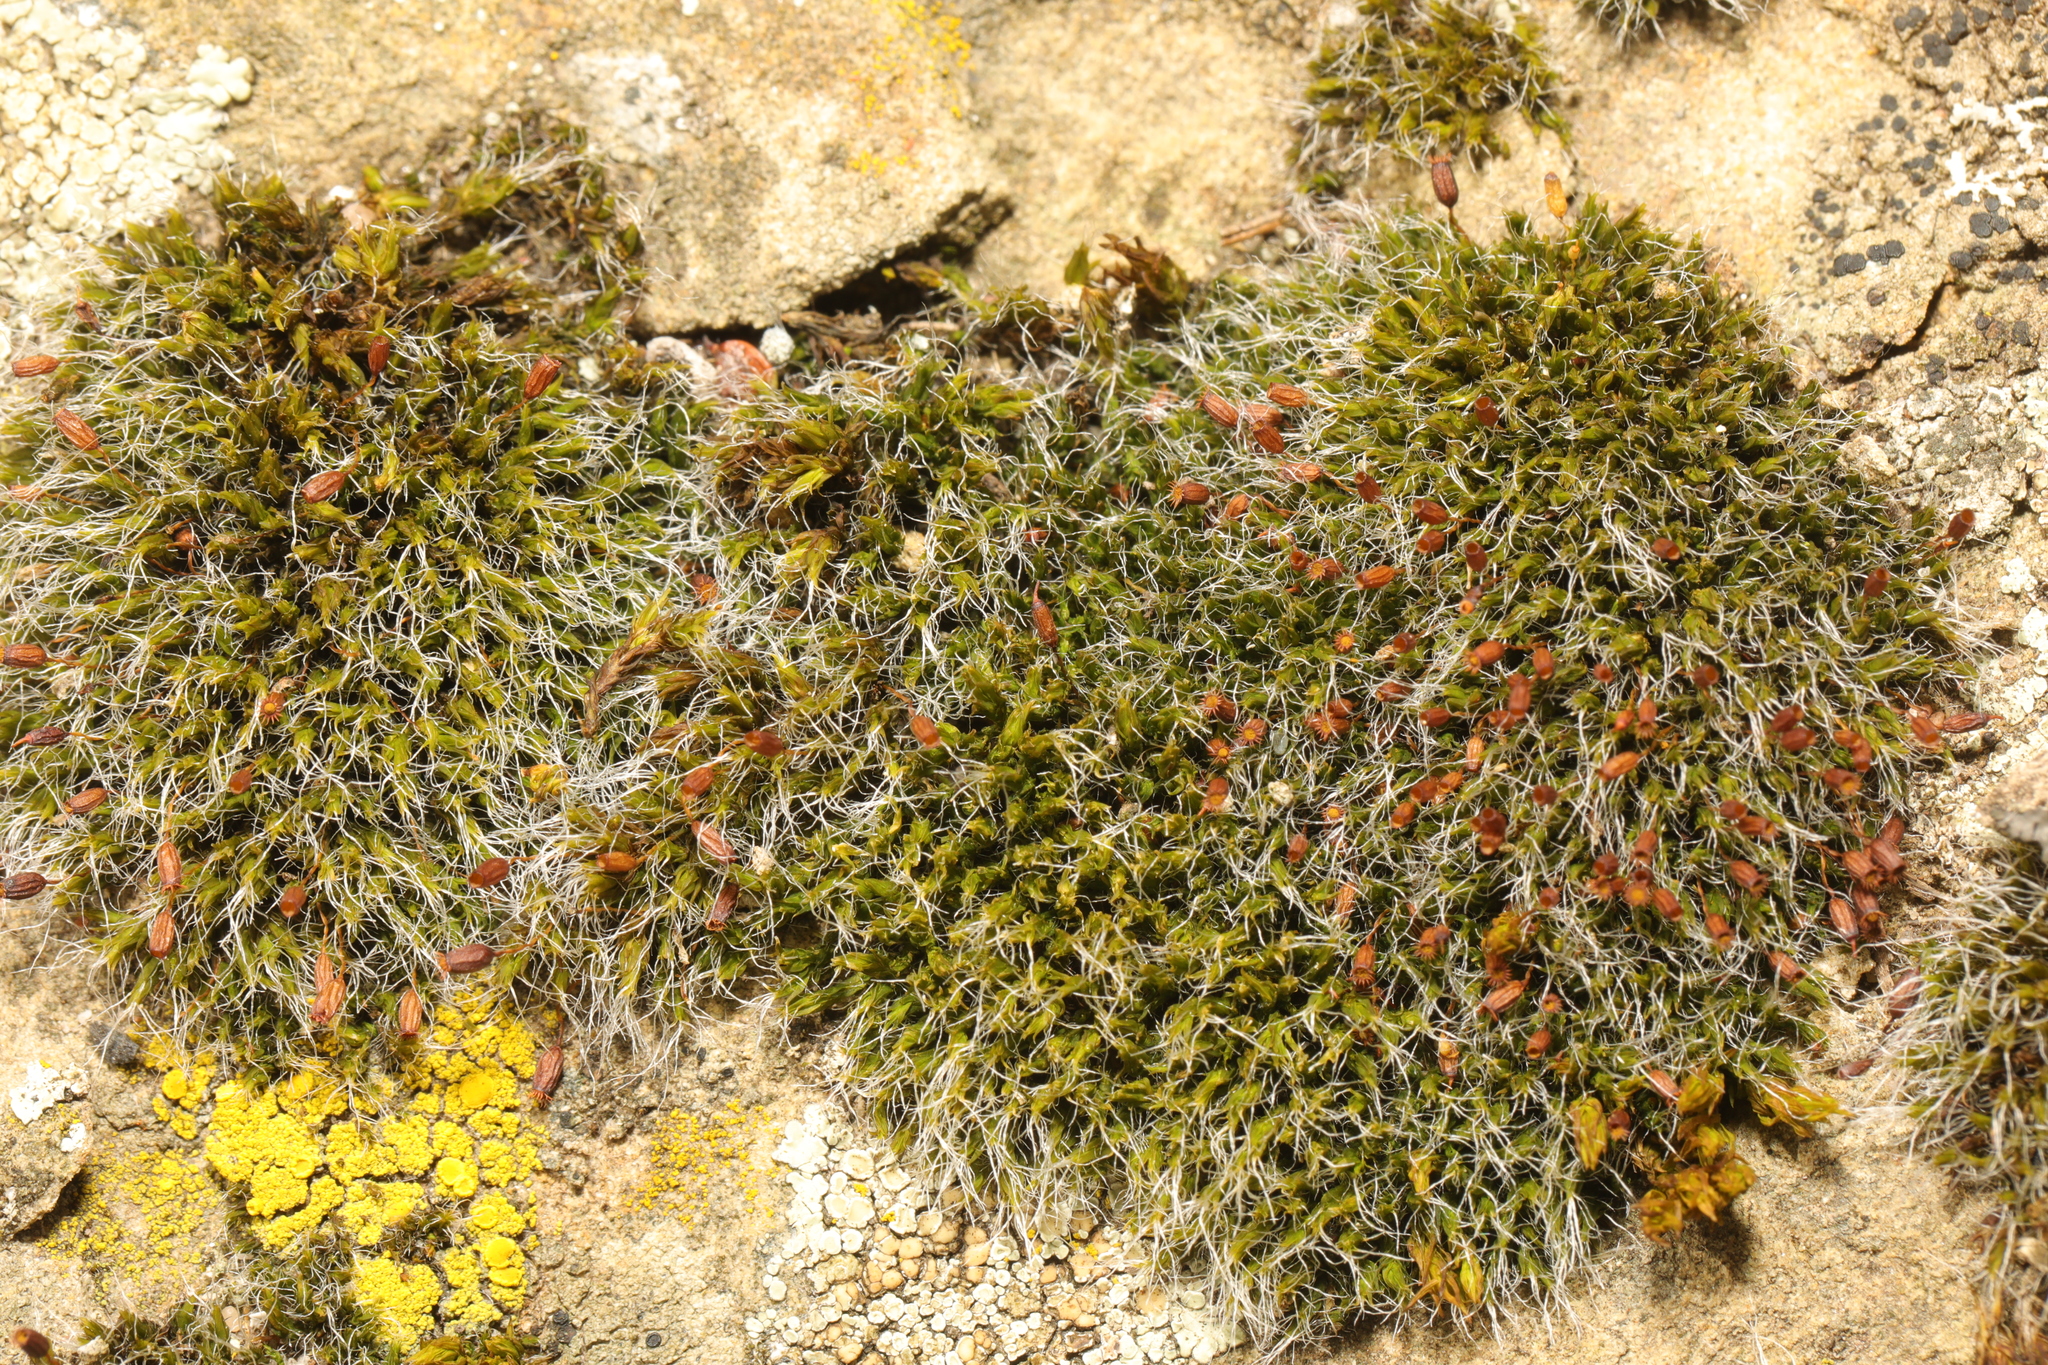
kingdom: Plantae
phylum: Bryophyta
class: Bryopsida
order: Grimmiales
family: Grimmiaceae
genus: Grimmia
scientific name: Grimmia pulvinata
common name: Grey-cushioned grimmia
